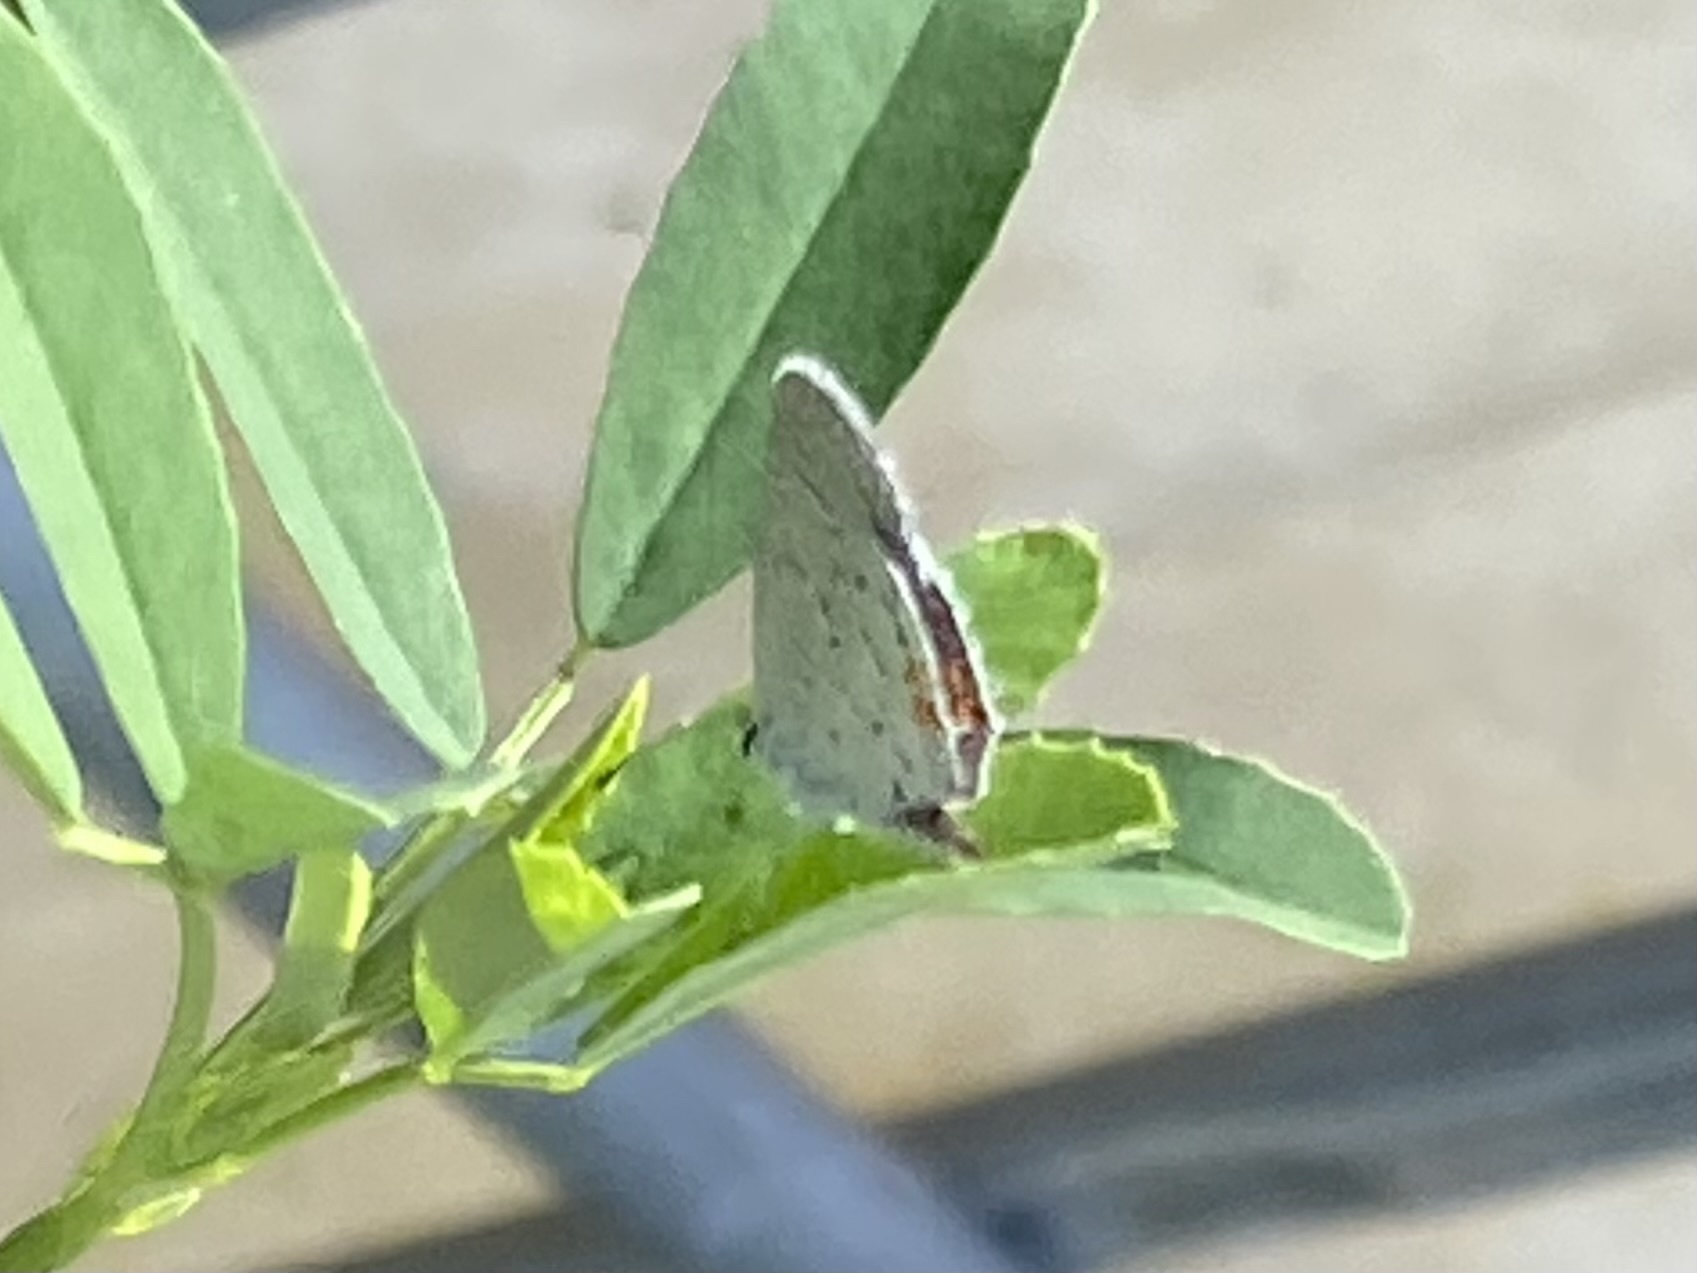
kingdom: Animalia
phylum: Arthropoda
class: Insecta
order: Lepidoptera
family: Lycaenidae
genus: Elkalyce
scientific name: Elkalyce comyntas
